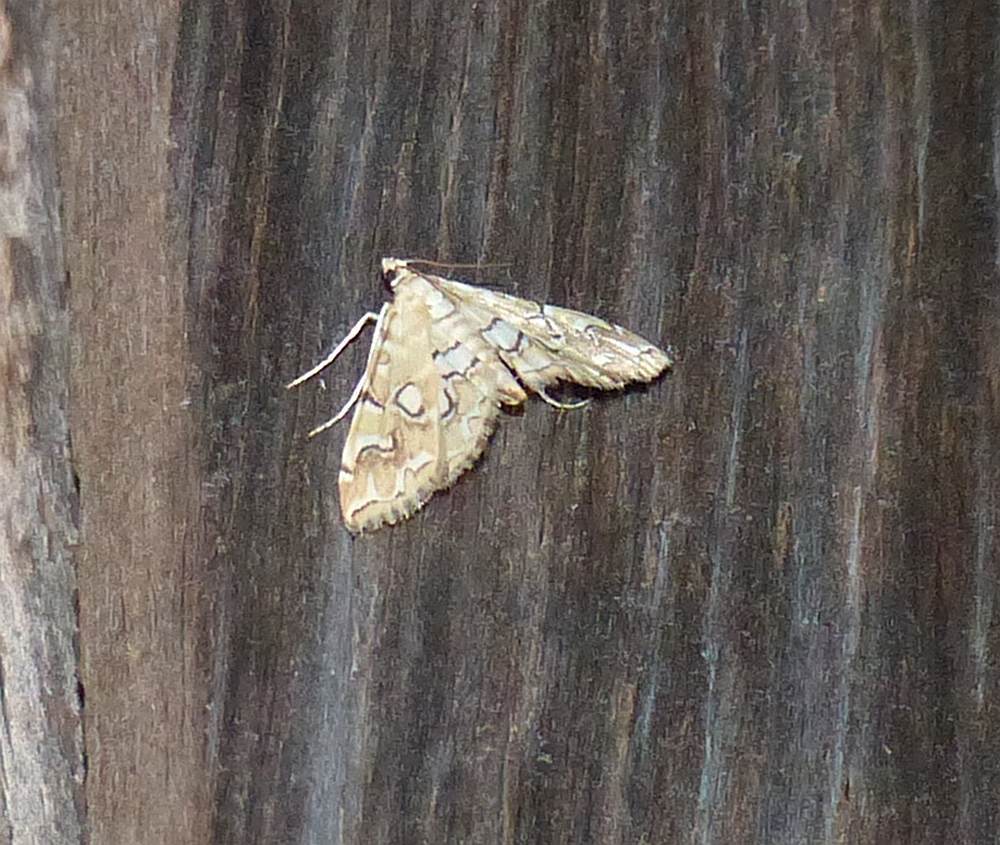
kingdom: Animalia
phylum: Arthropoda
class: Insecta
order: Lepidoptera
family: Crambidae
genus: Elophila
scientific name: Elophila icciusalis
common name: Pondside pyralid moth
